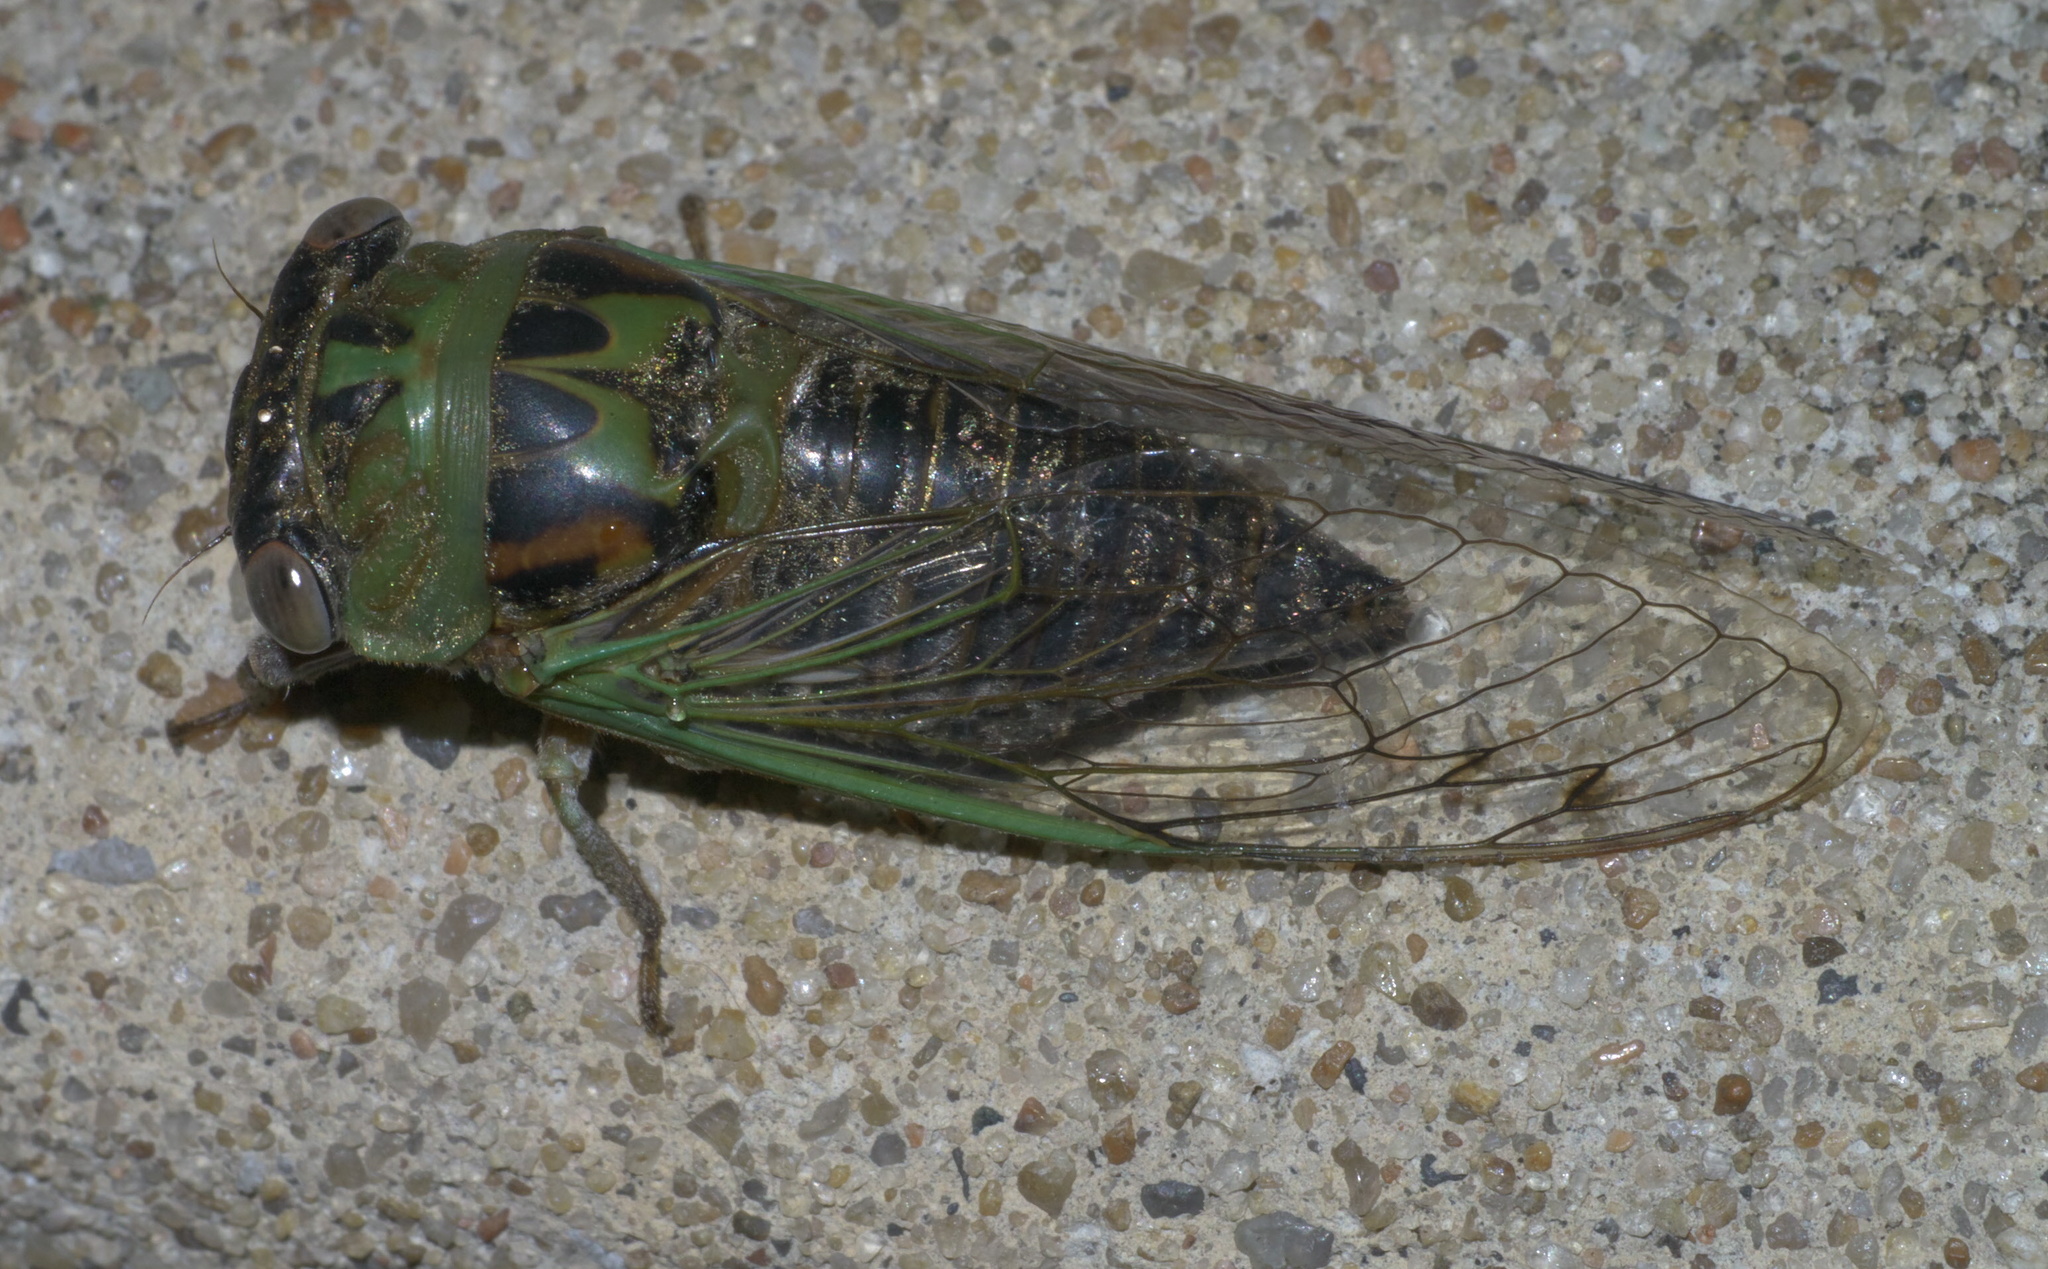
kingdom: Animalia
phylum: Arthropoda
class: Insecta
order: Hemiptera
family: Cicadidae
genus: Neotibicen
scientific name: Neotibicen aurifer
